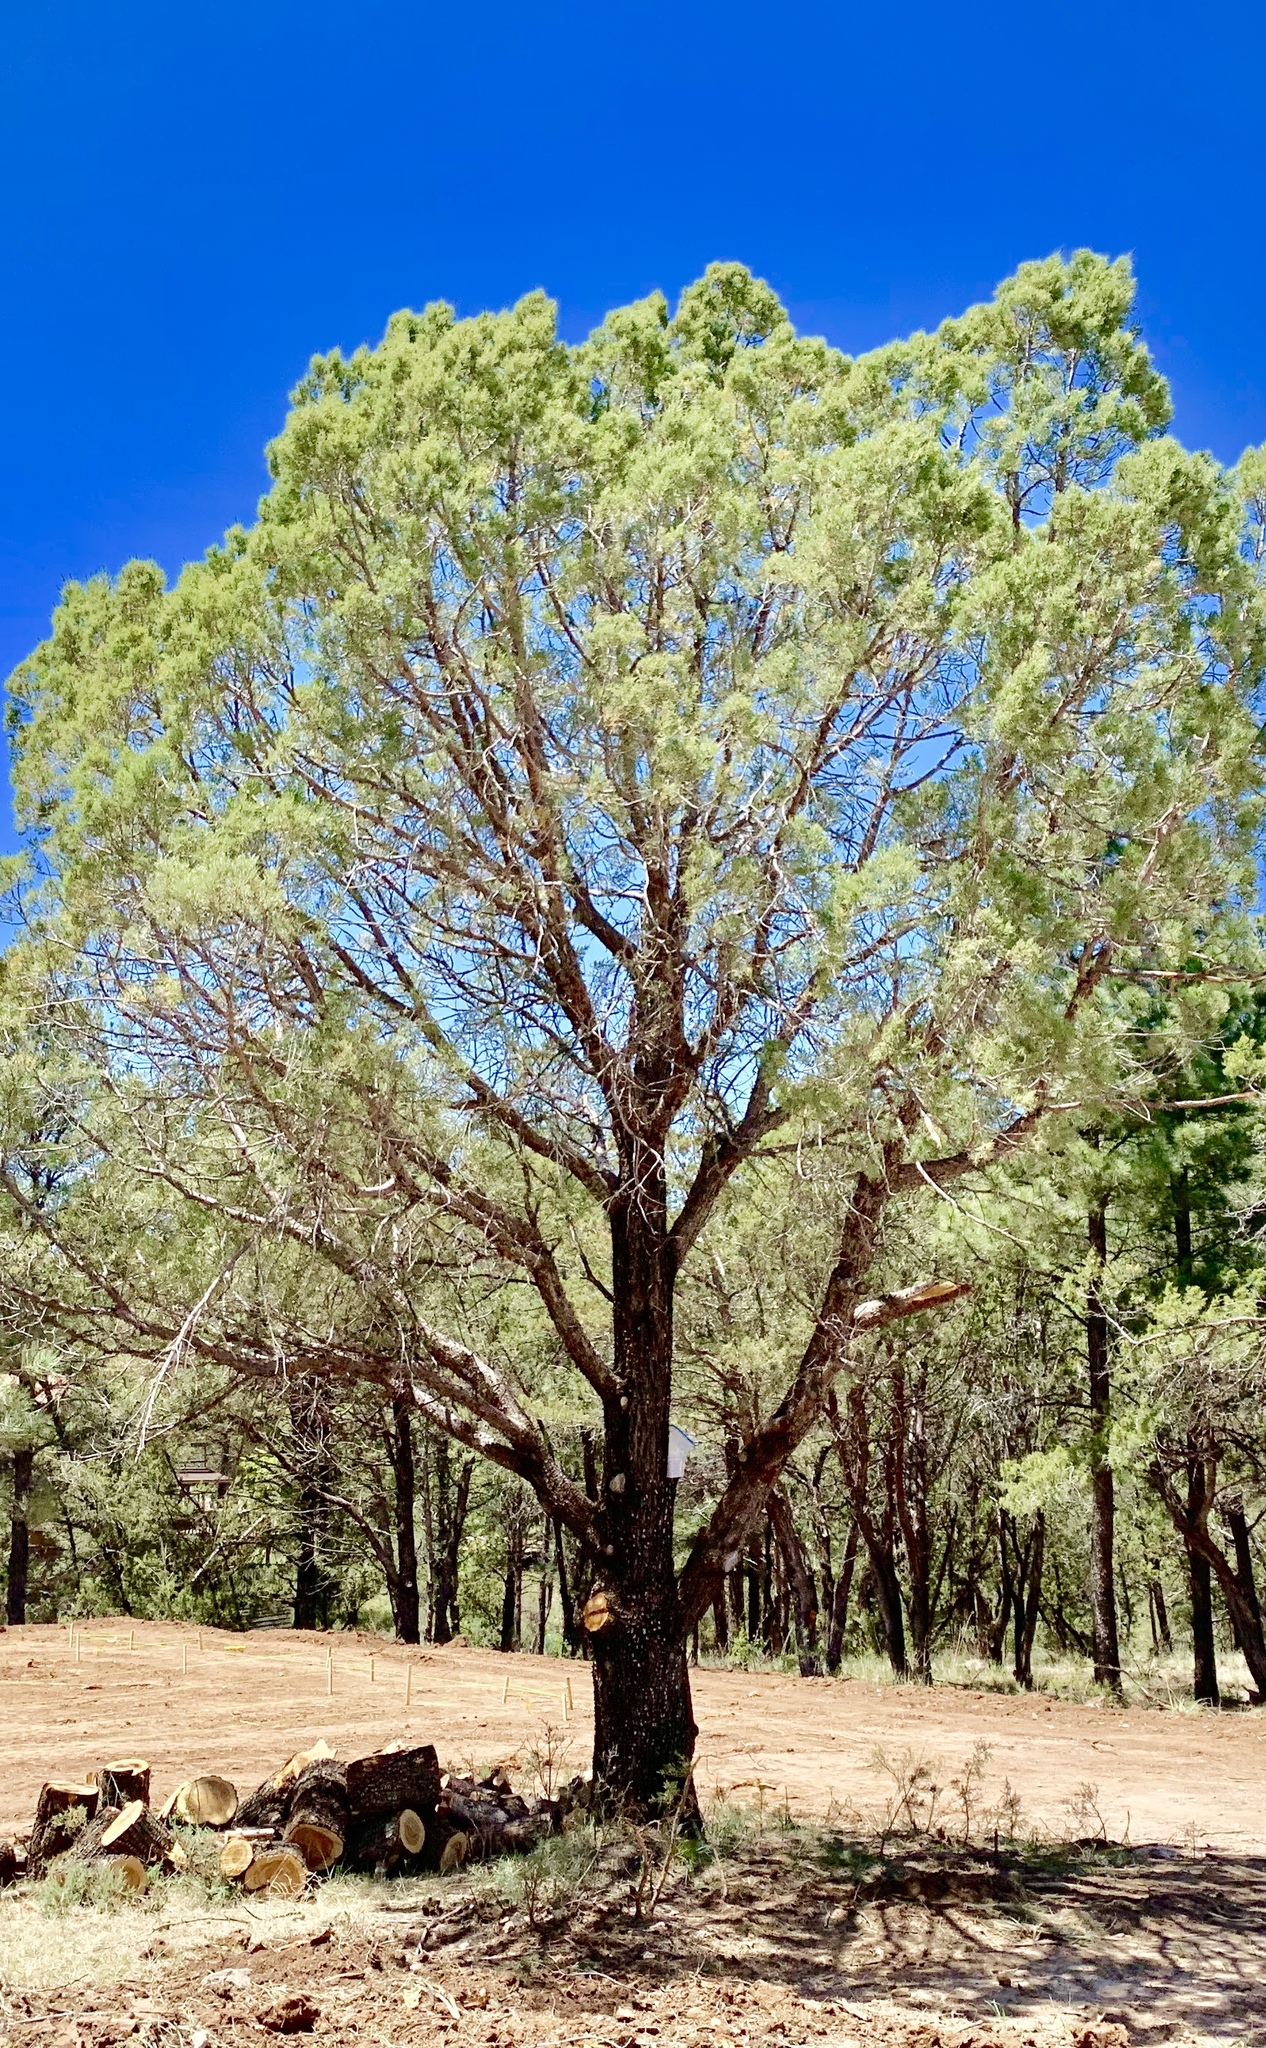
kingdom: Plantae
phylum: Tracheophyta
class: Pinopsida
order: Pinales
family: Cupressaceae
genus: Juniperus
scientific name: Juniperus deppeana
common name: Alligator juniper
